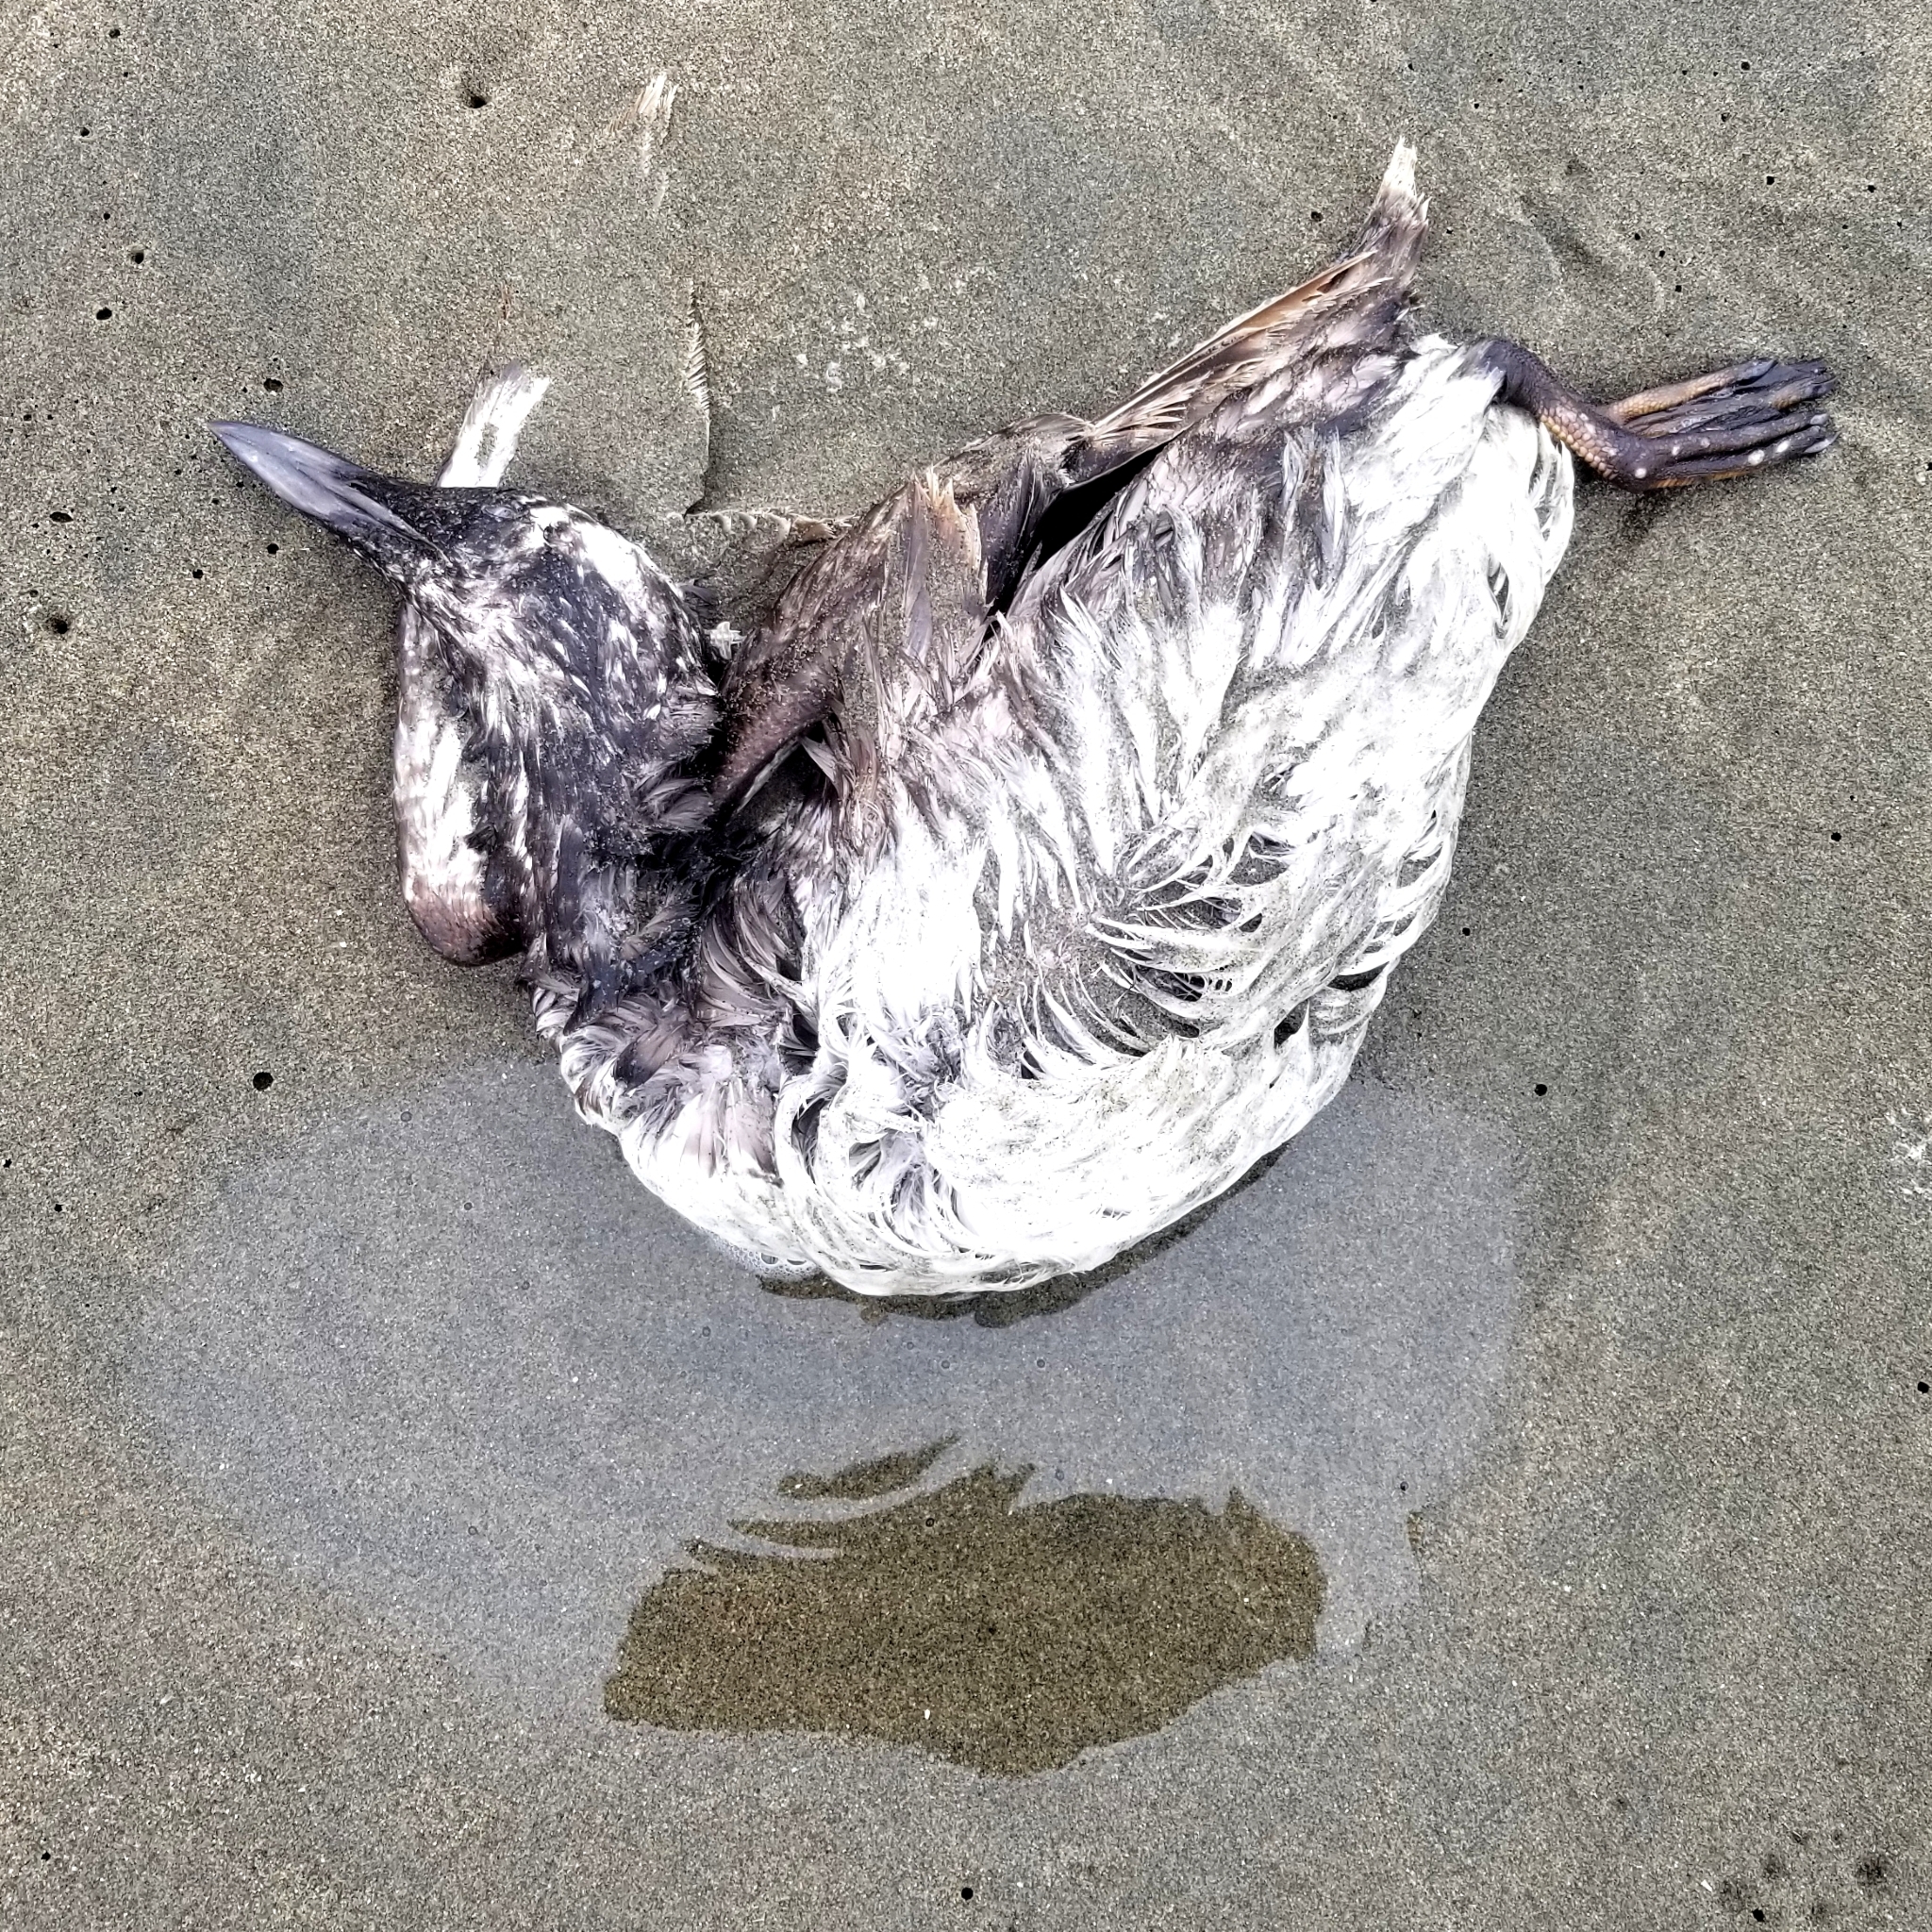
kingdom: Animalia
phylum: Chordata
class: Aves
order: Charadriiformes
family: Alcidae
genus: Uria
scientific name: Uria aalge
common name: Common murre
